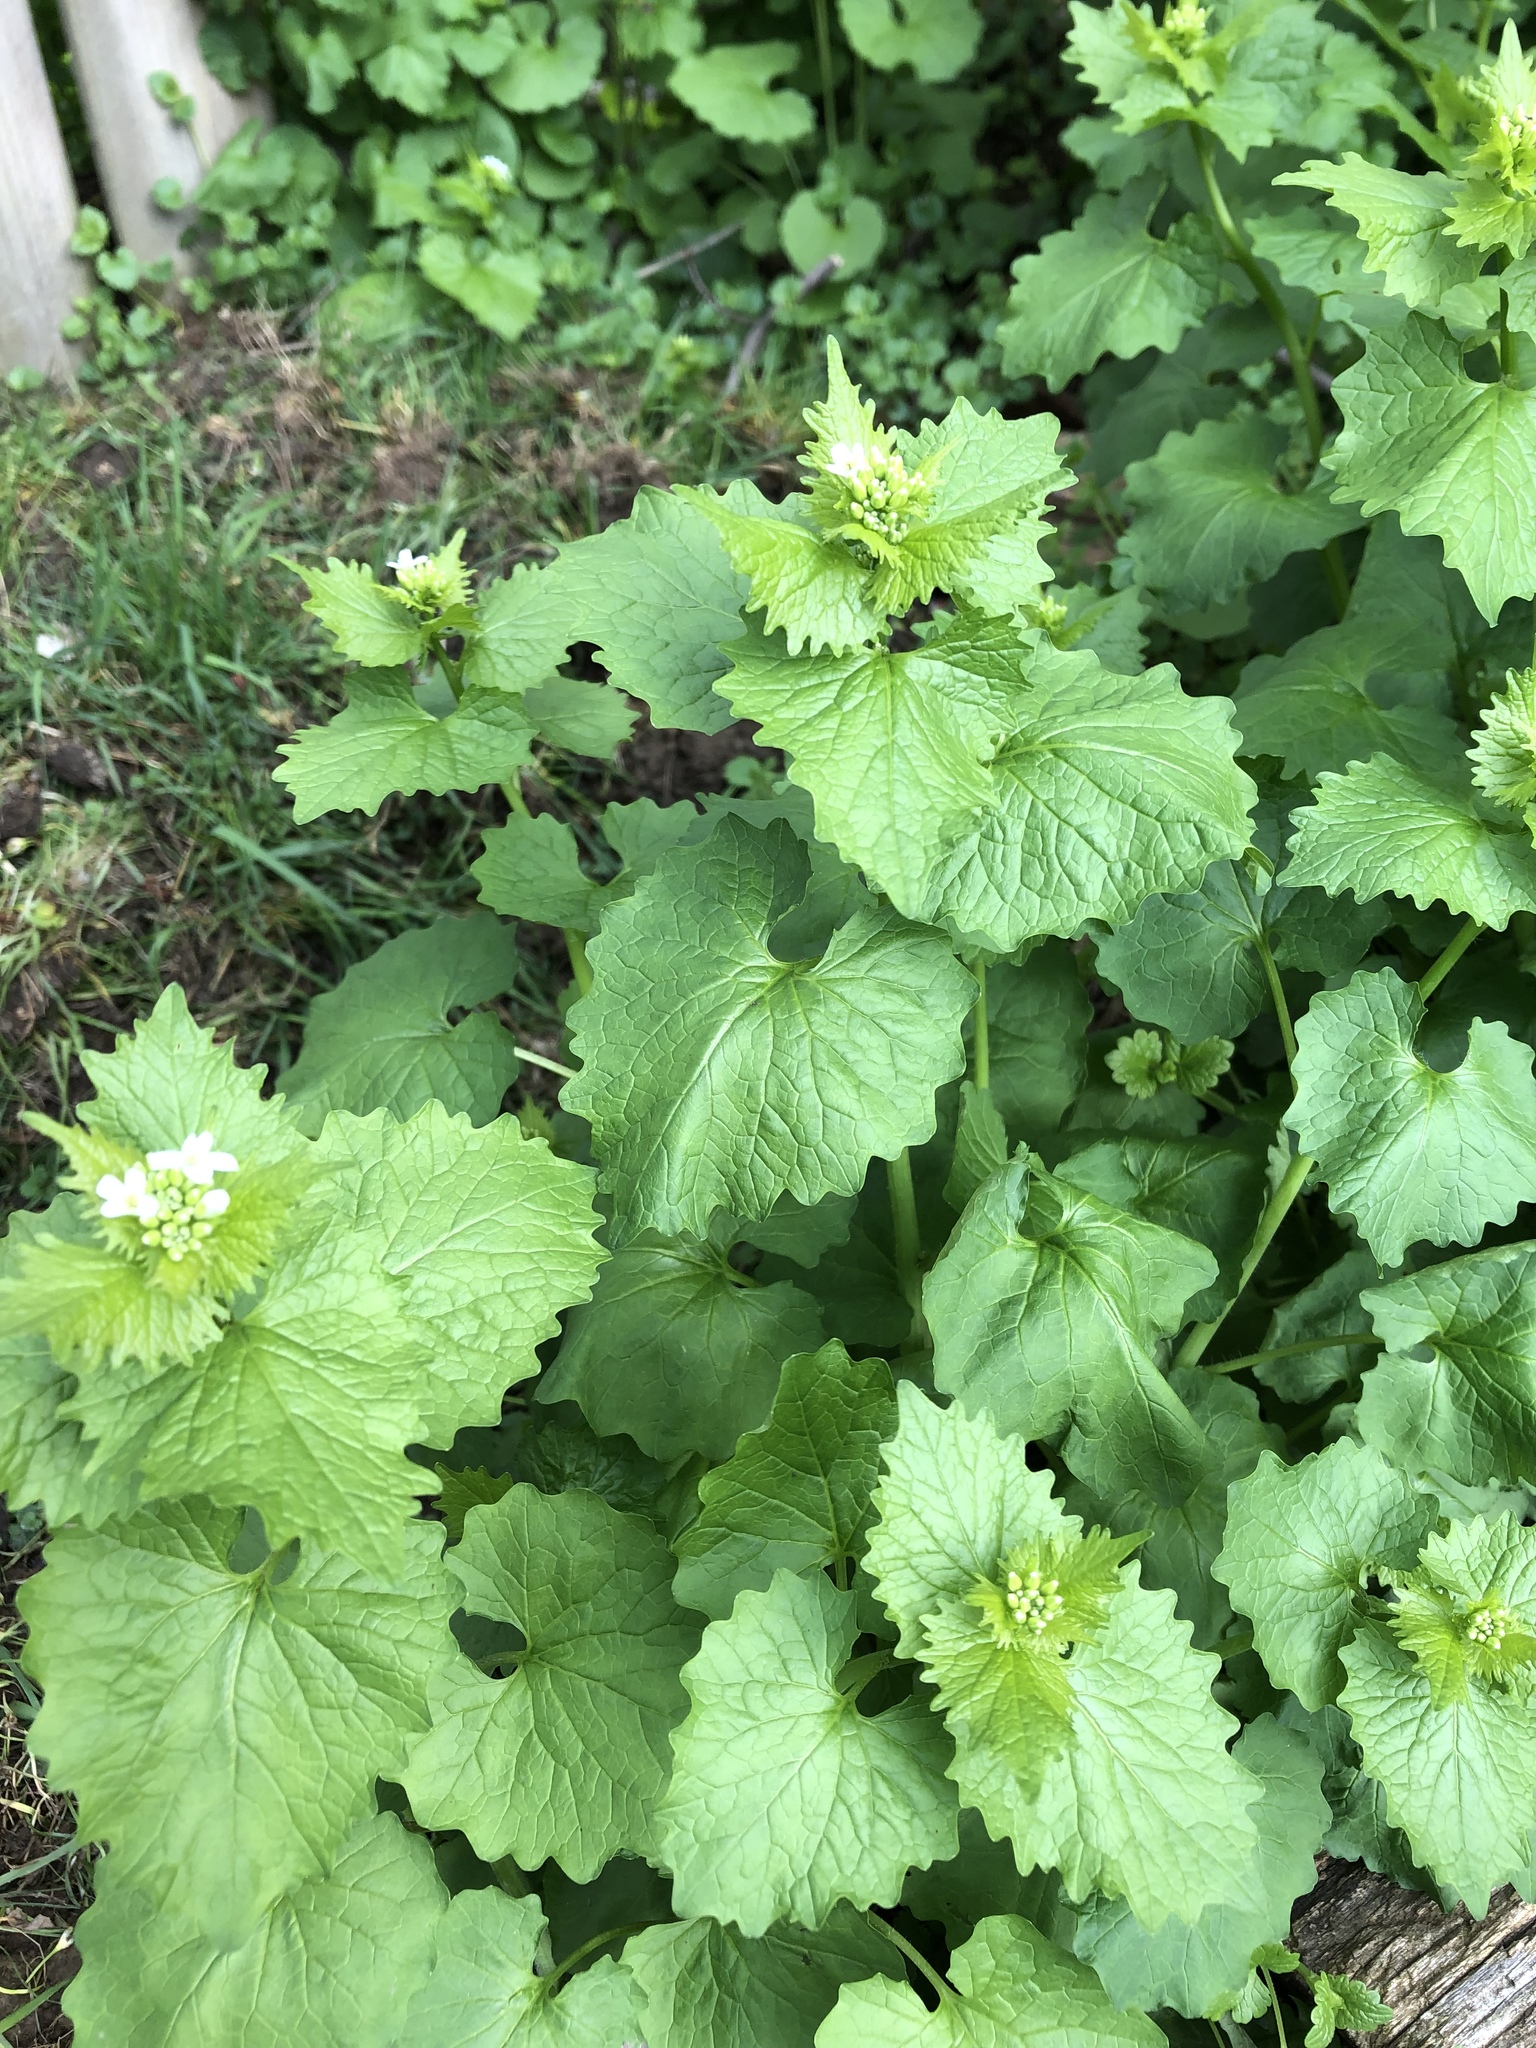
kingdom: Plantae
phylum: Tracheophyta
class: Magnoliopsida
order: Brassicales
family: Brassicaceae
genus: Alliaria
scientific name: Alliaria petiolata
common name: Garlic mustard
